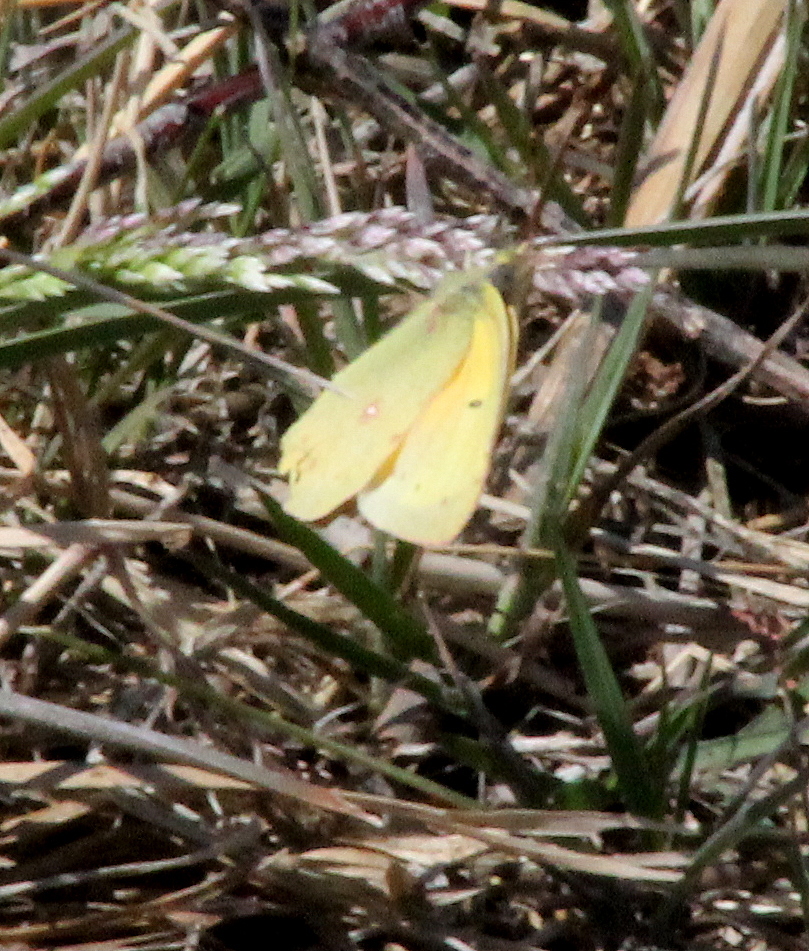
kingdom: Animalia
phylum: Arthropoda
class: Insecta
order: Lepidoptera
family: Pieridae
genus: Colias
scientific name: Colias eurytheme
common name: Alfalfa butterfly
